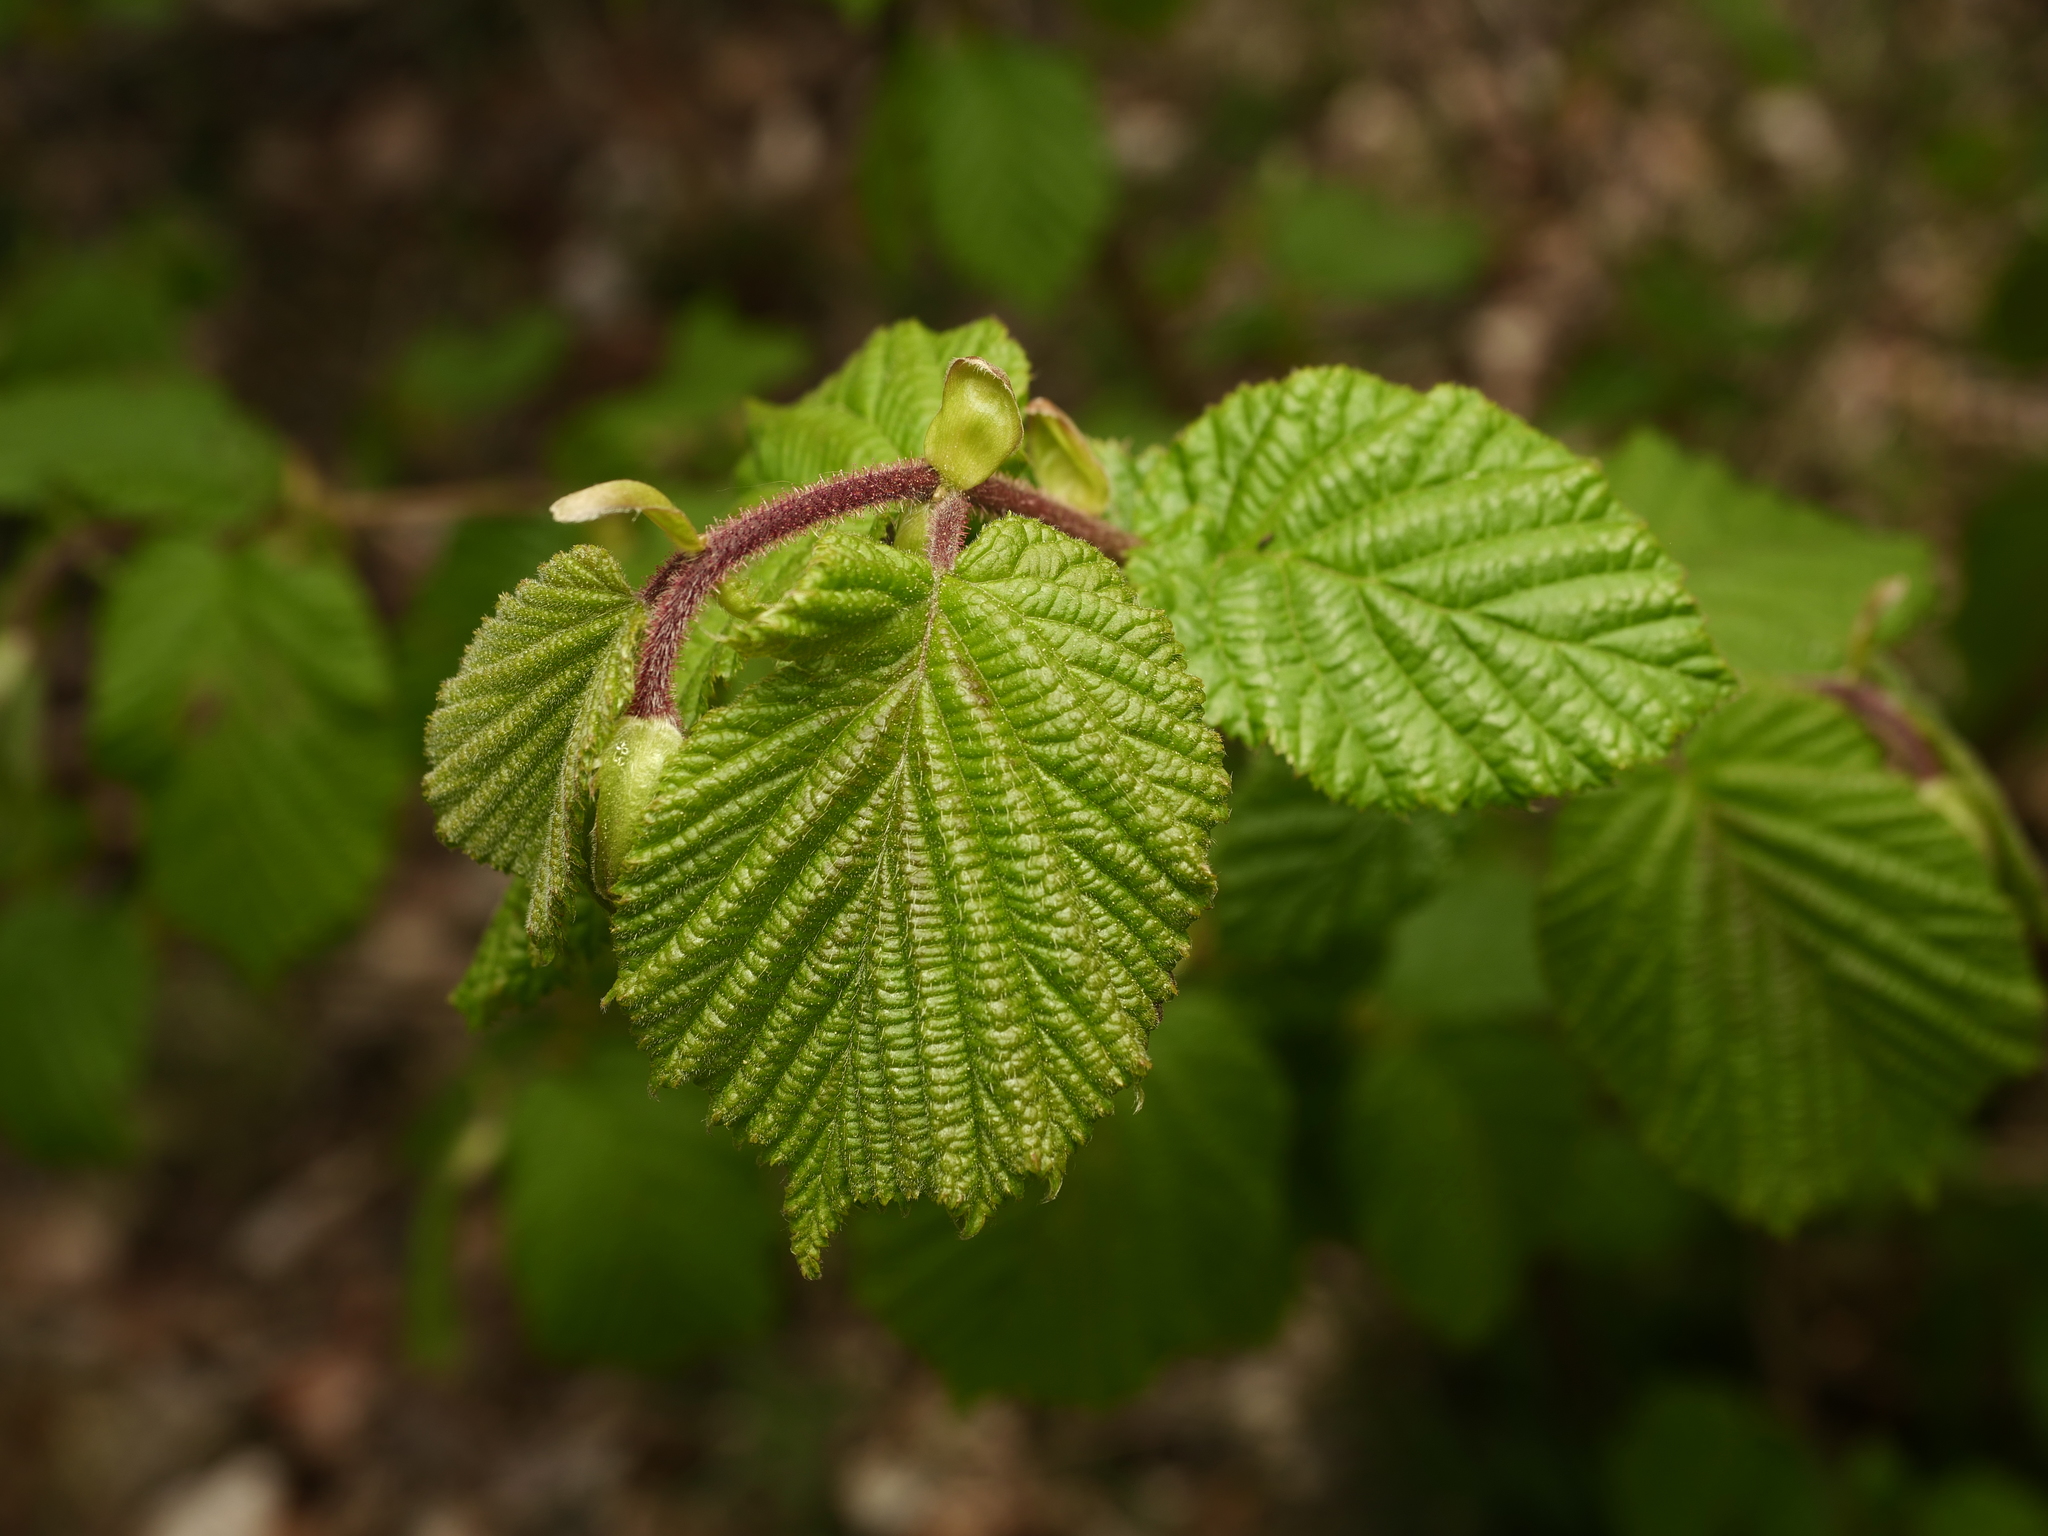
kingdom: Plantae
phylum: Tracheophyta
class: Magnoliopsida
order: Fagales
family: Betulaceae
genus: Corylus
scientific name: Corylus avellana
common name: European hazel
